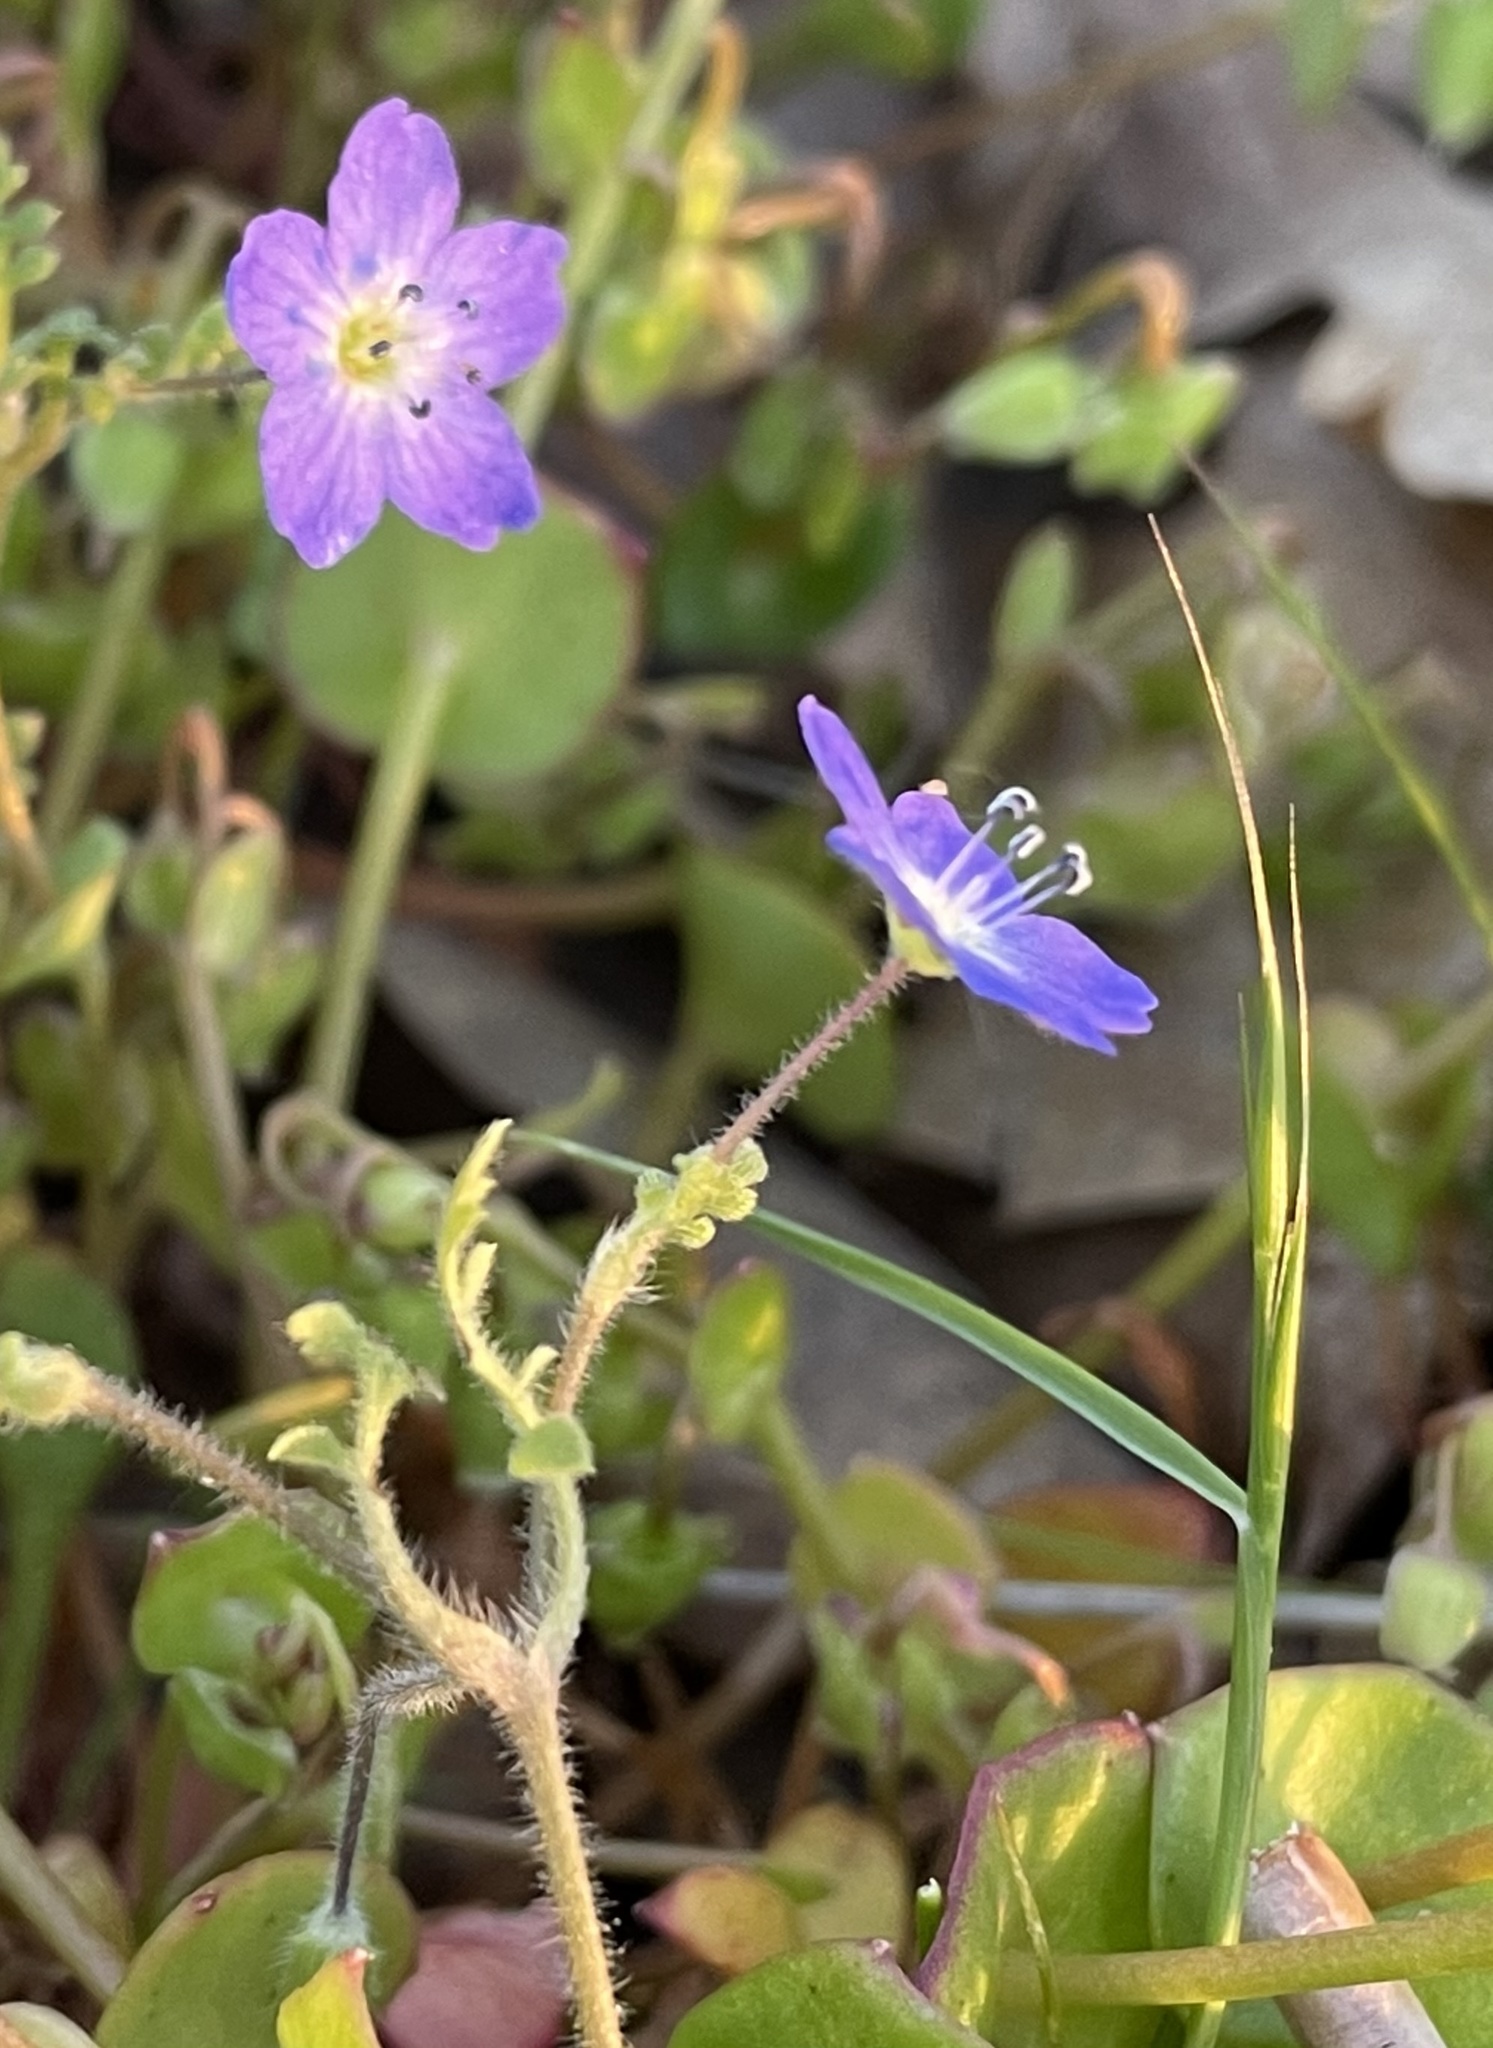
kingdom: Plantae
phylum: Tracheophyta
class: Magnoliopsida
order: Boraginales
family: Hydrophyllaceae
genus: Nemophila
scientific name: Nemophila pulchella
